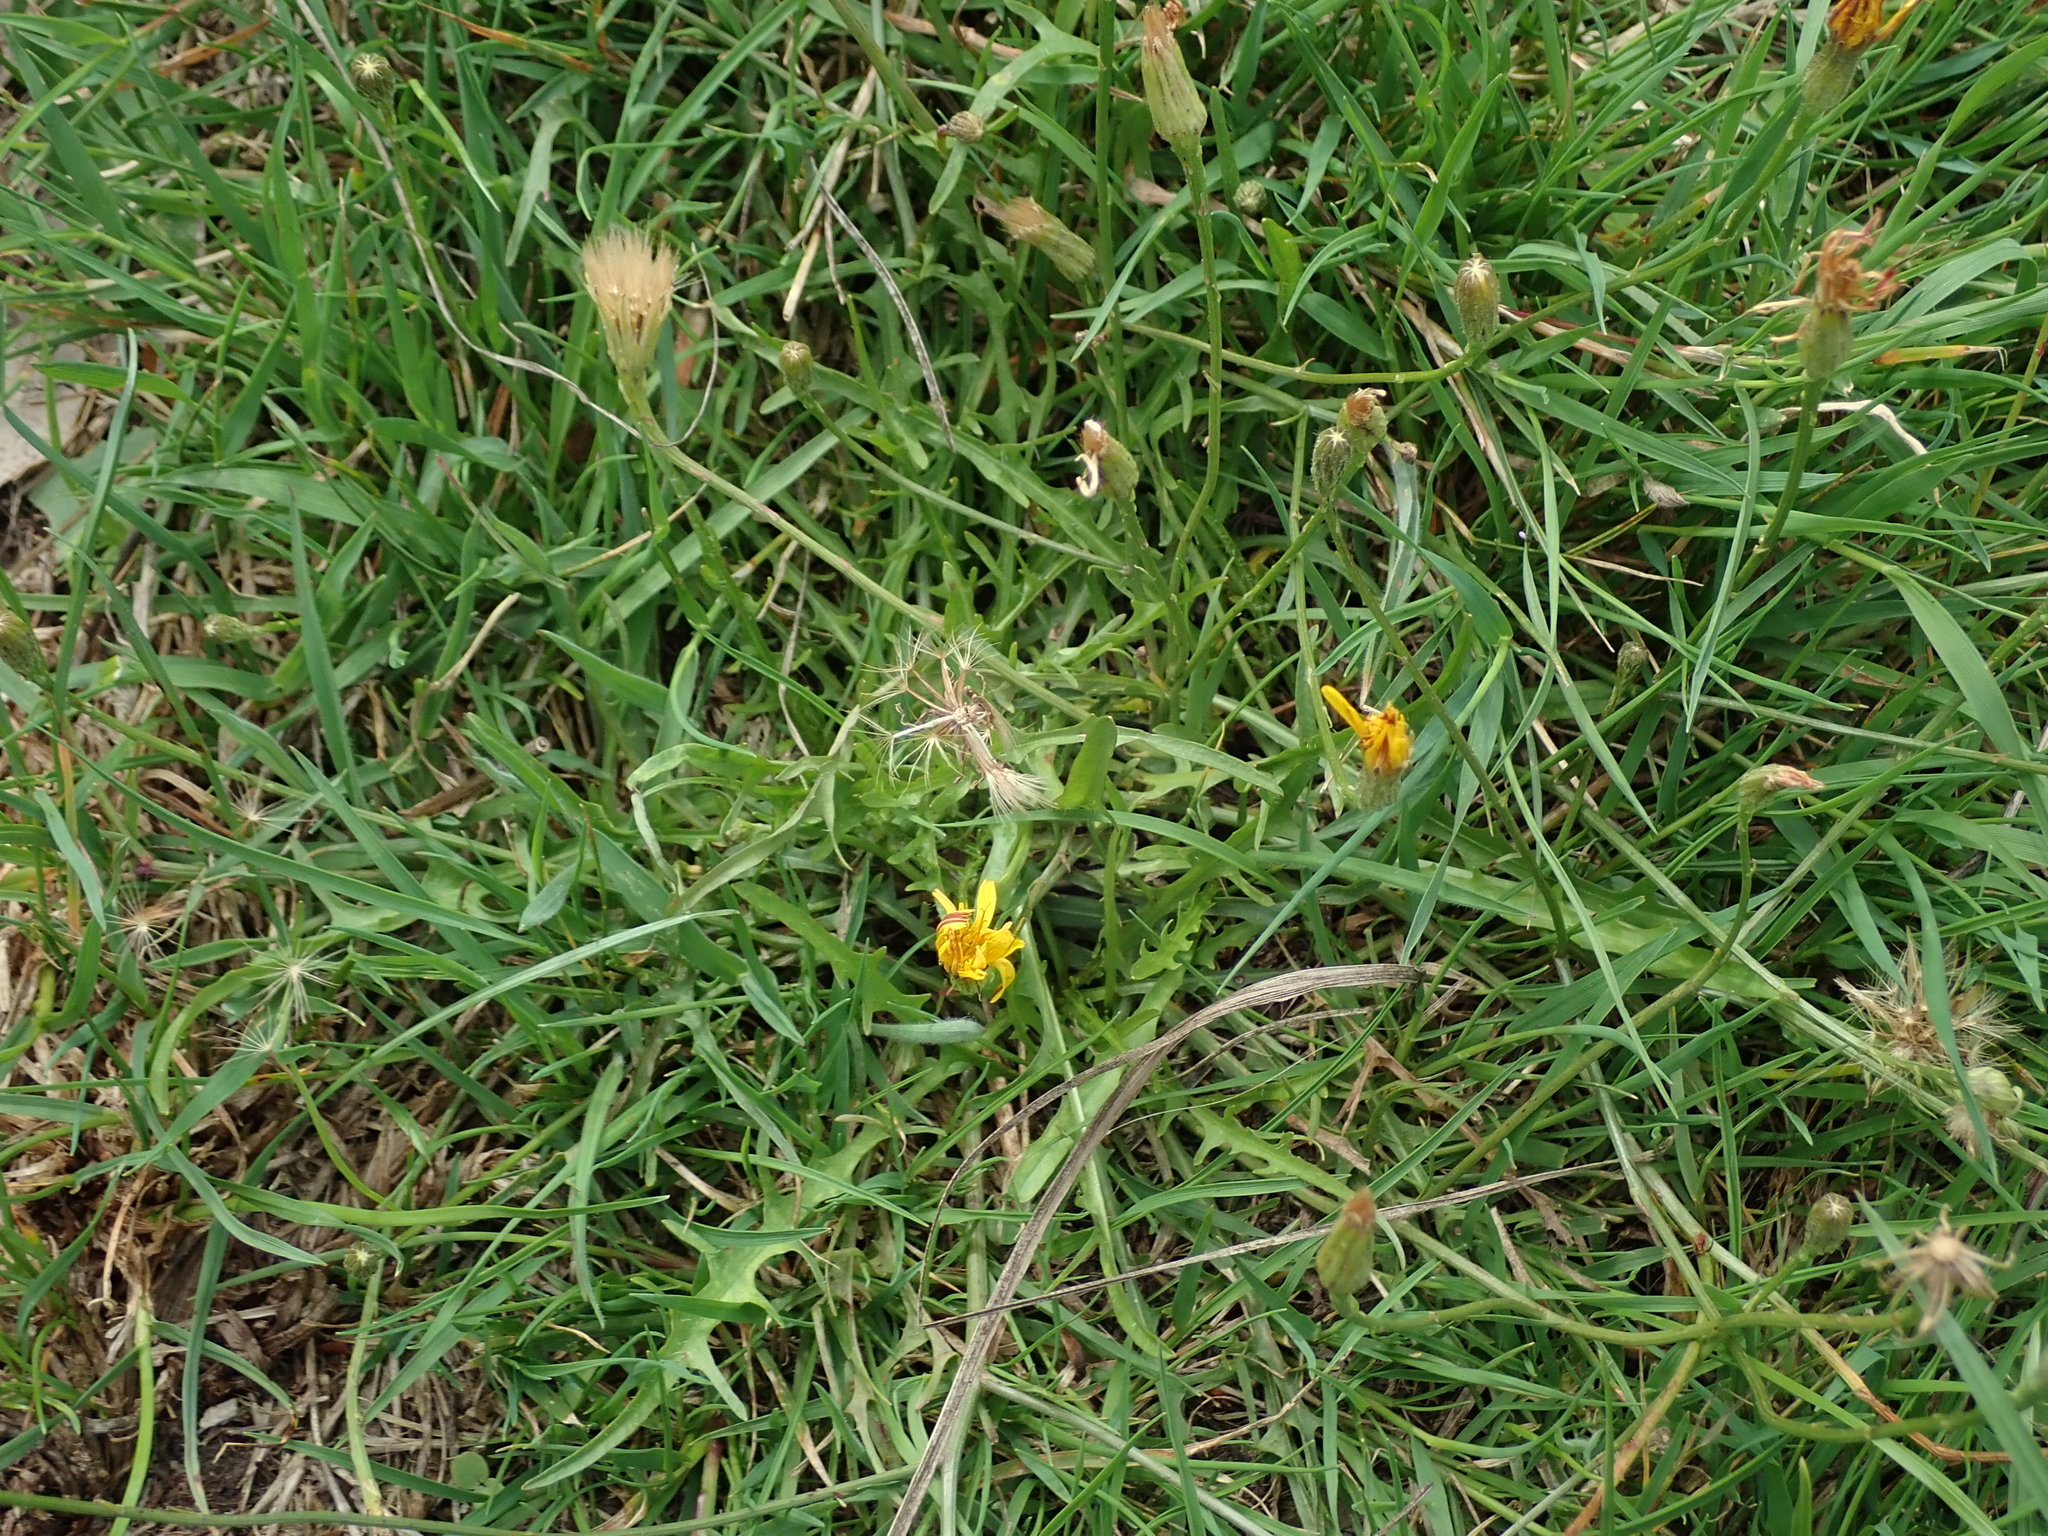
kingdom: Plantae
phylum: Tracheophyta
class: Magnoliopsida
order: Asterales
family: Asteraceae
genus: Scorzoneroides
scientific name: Scorzoneroides autumnalis
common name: Autumn hawkbit
